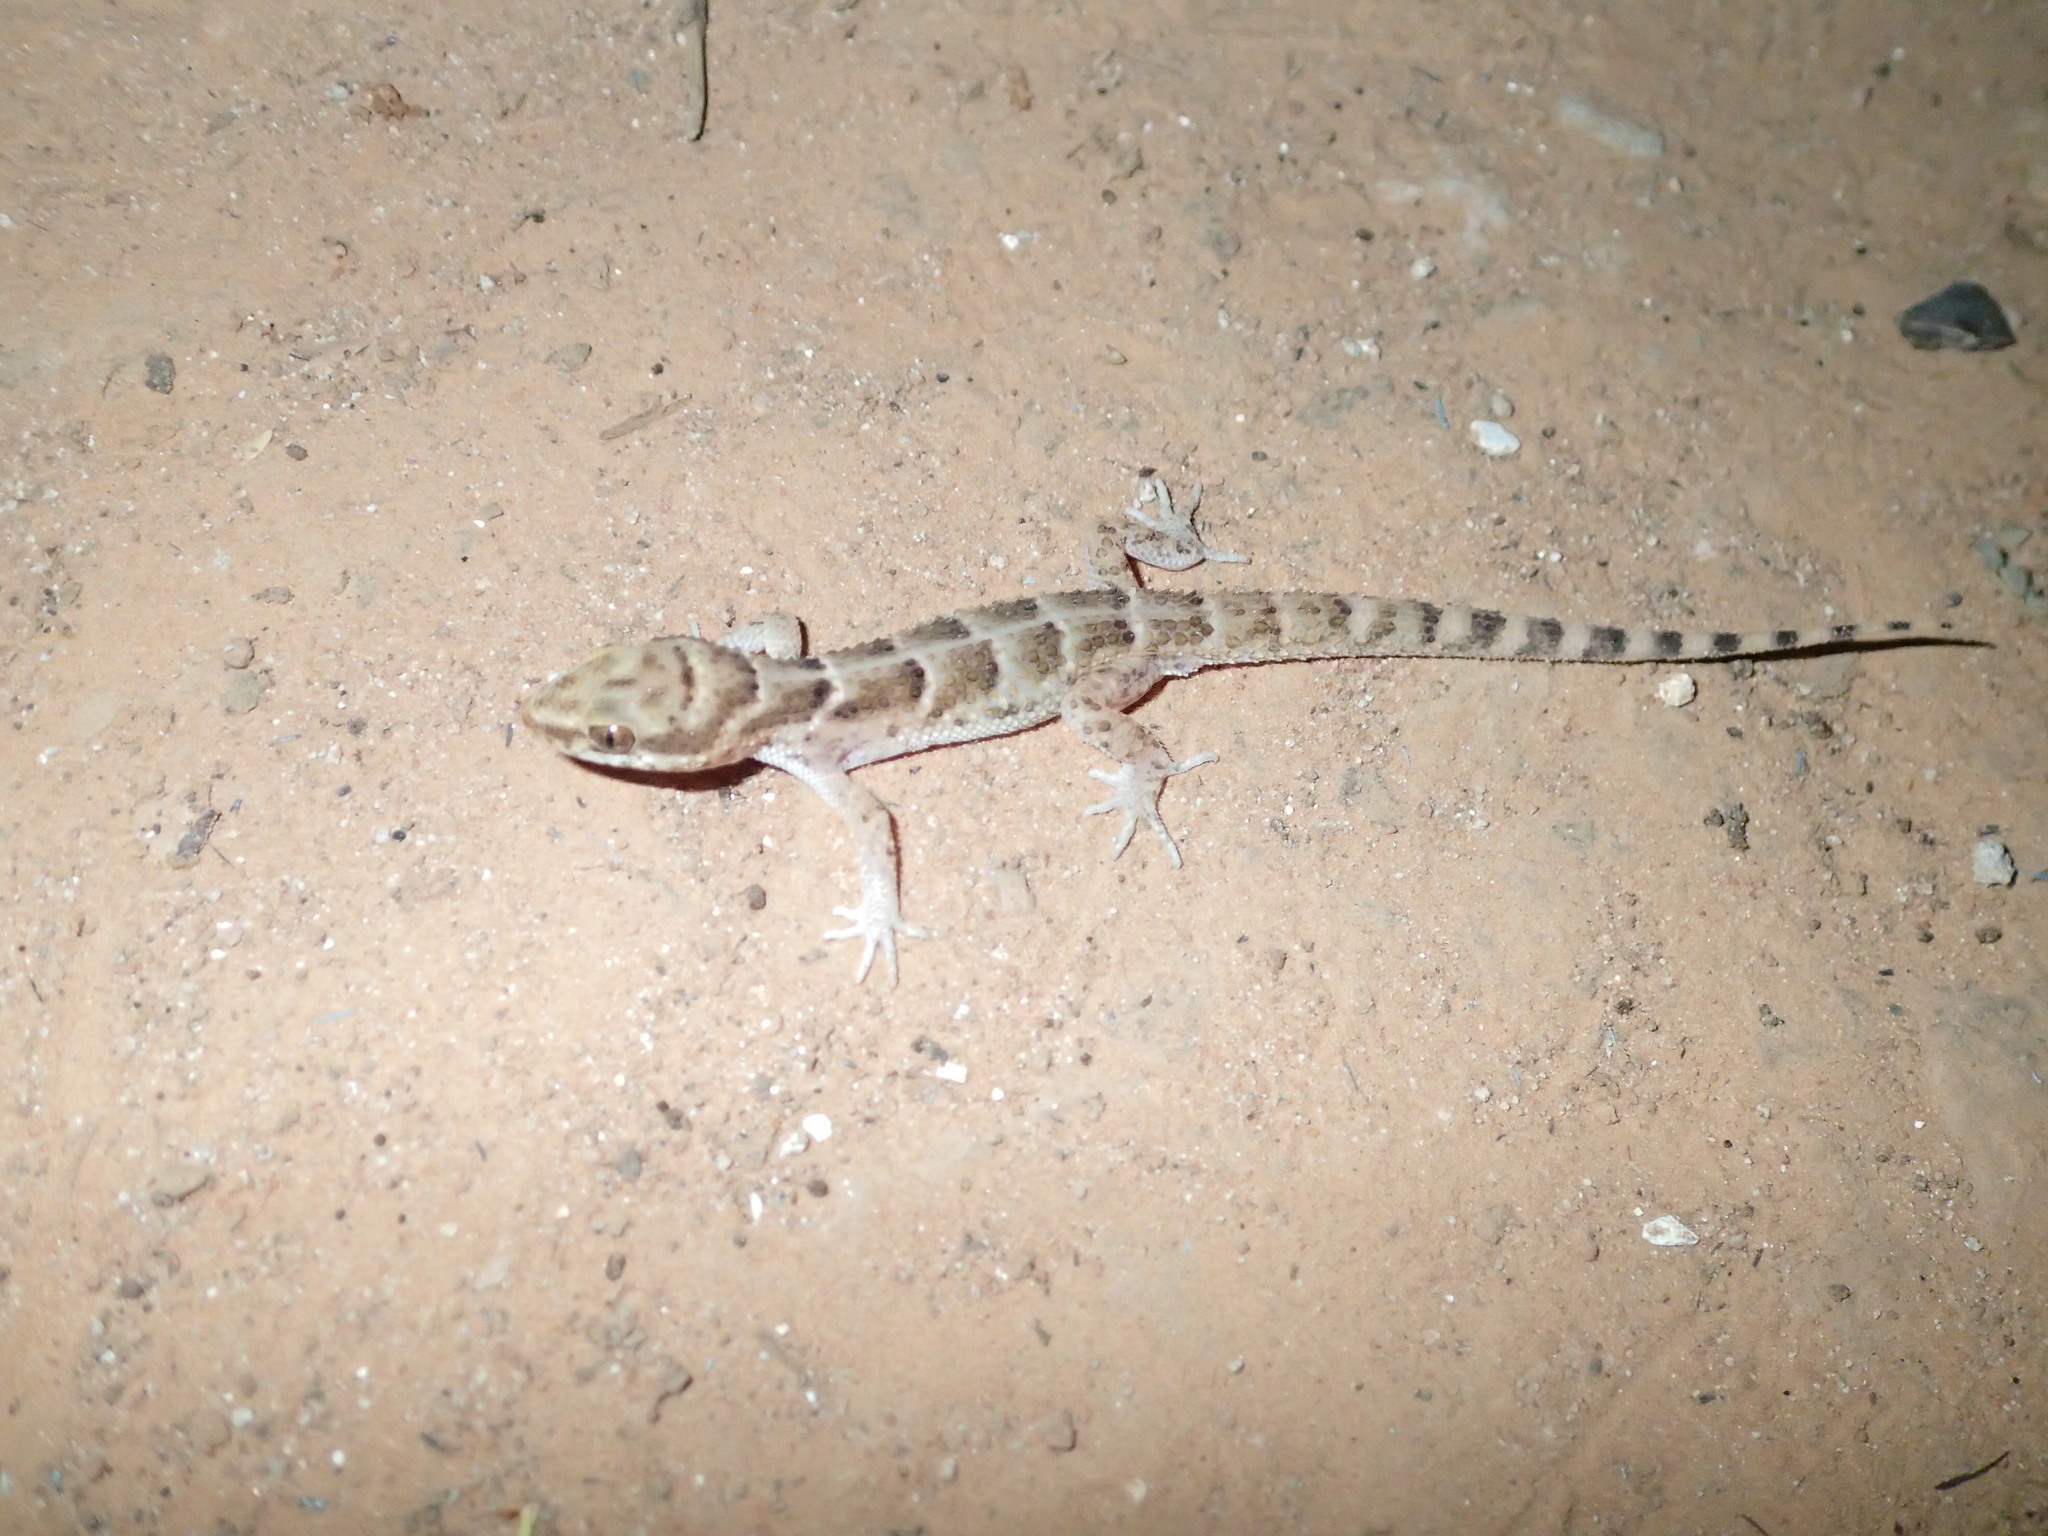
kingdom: Animalia
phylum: Chordata
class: Squamata
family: Phyllodactylidae
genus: Homonota
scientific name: Homonota septentrionalis
